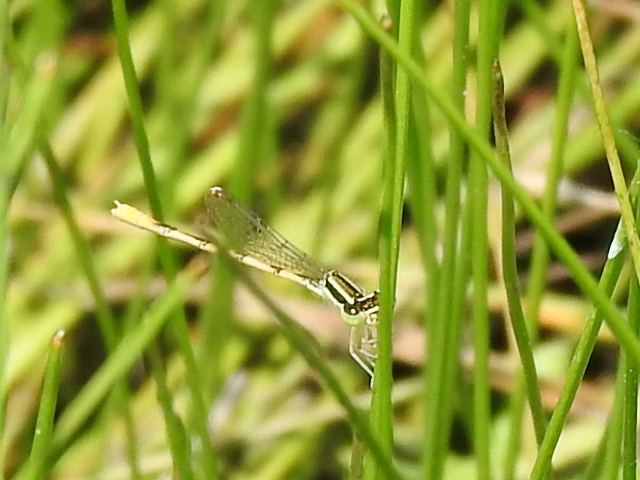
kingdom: Animalia
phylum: Arthropoda
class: Insecta
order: Odonata
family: Coenagrionidae
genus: Ischnura
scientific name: Ischnura hastata
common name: Citrine forktail
